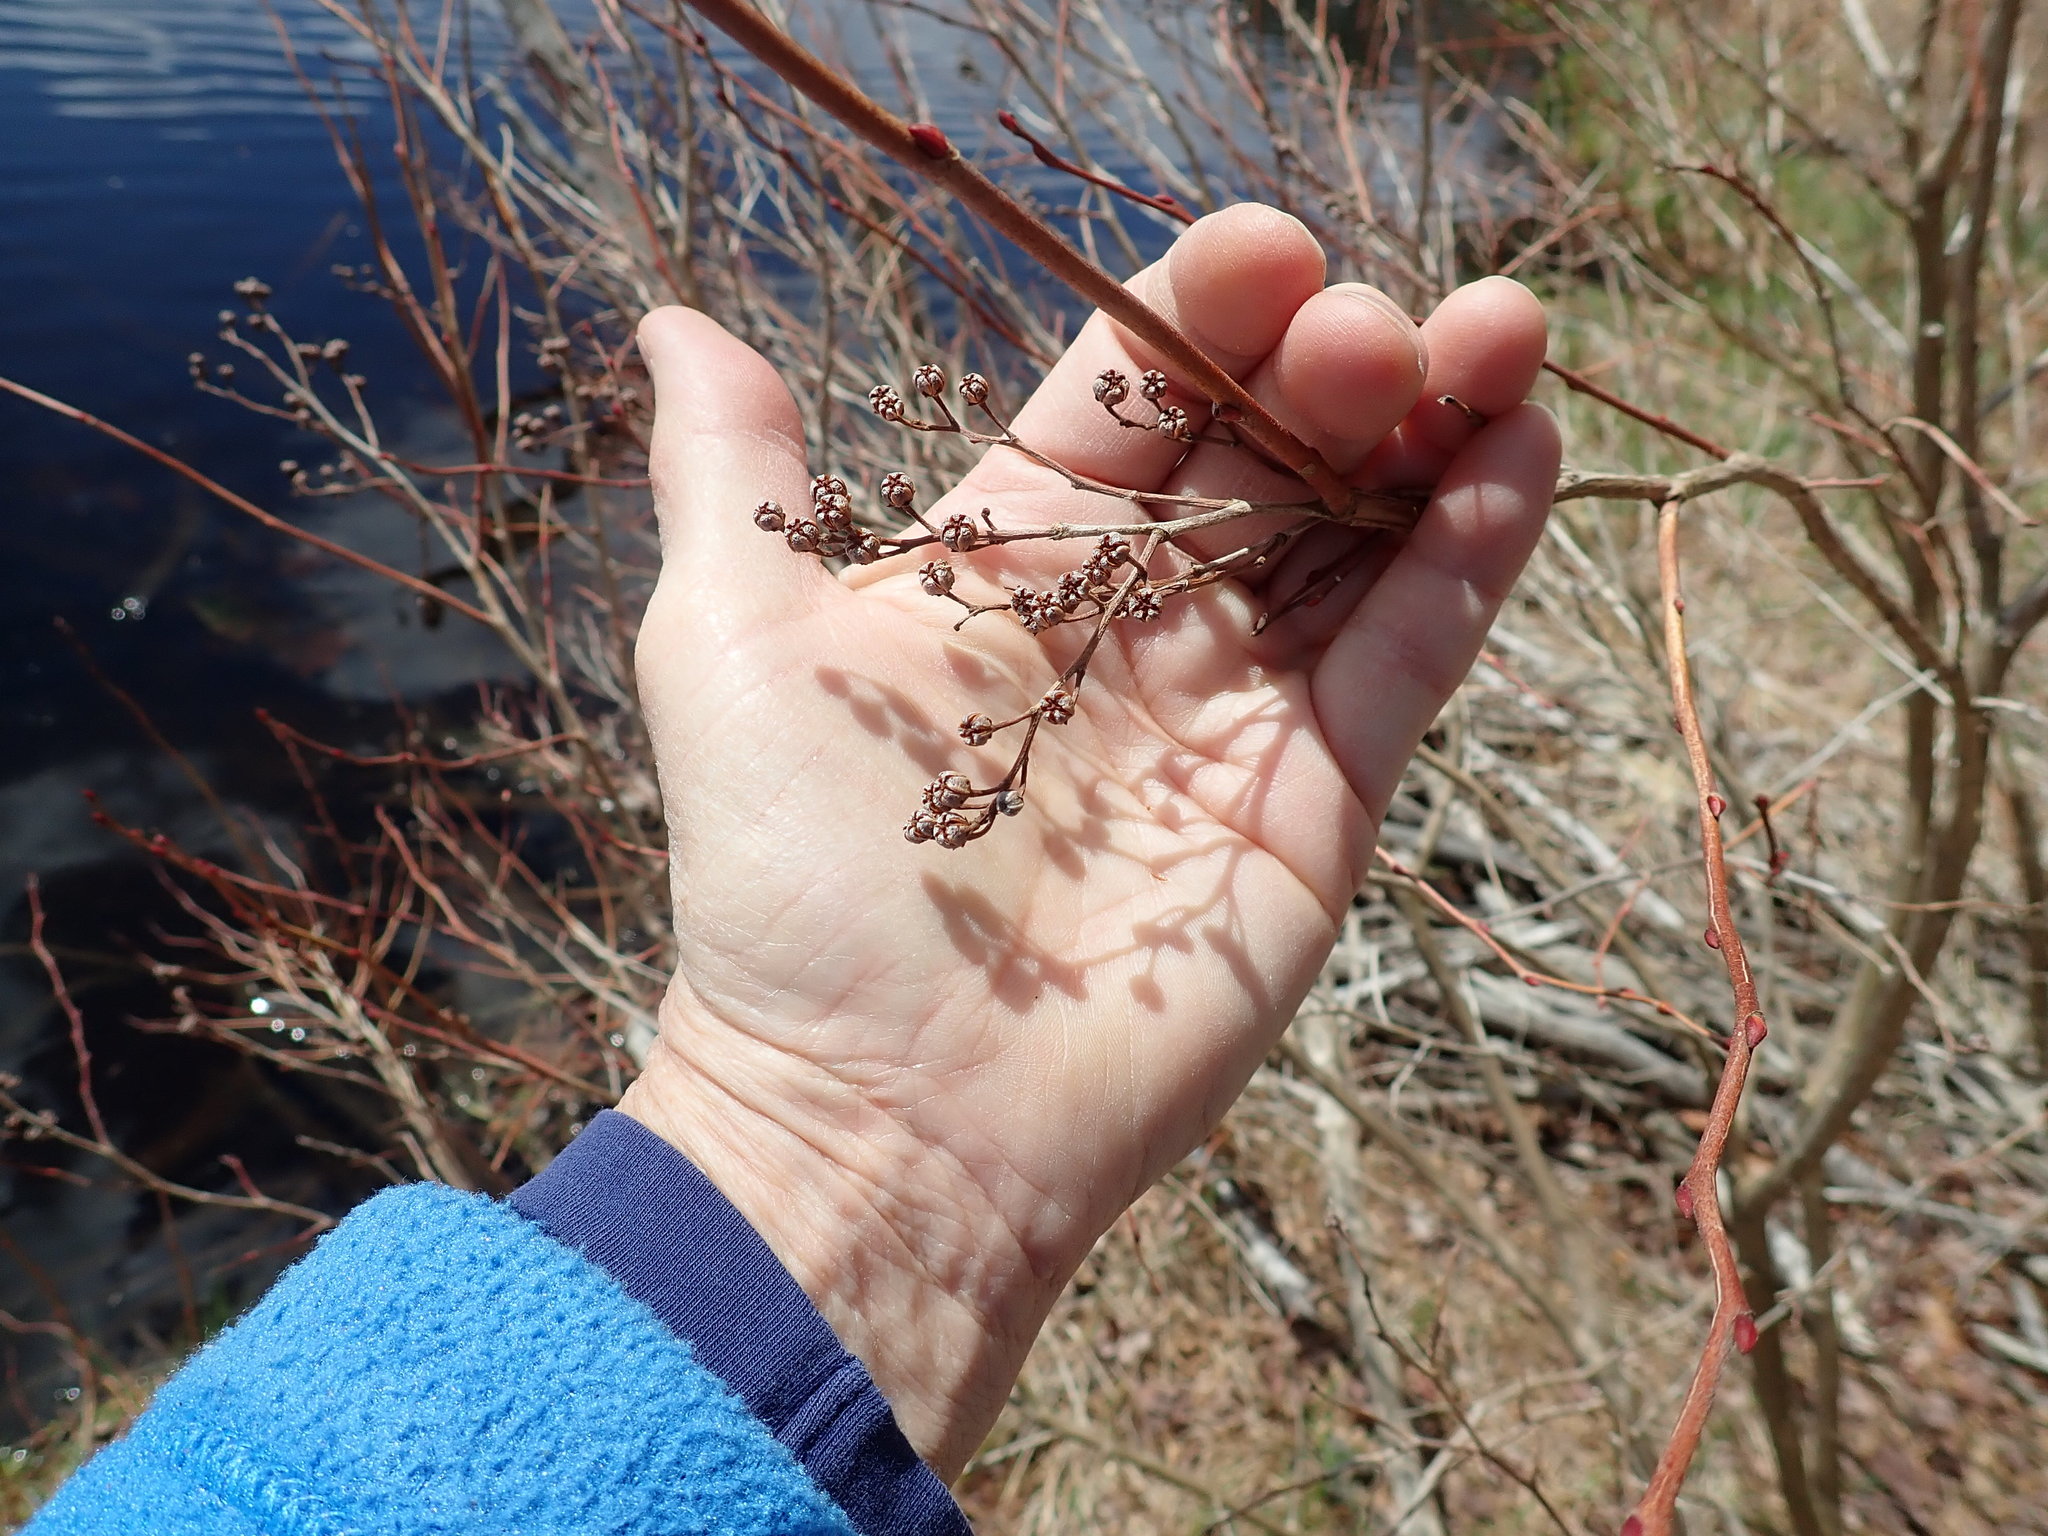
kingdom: Plantae
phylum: Tracheophyta
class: Magnoliopsida
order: Ericales
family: Ericaceae
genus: Lyonia
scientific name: Lyonia ligustrina
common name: Maleberry
